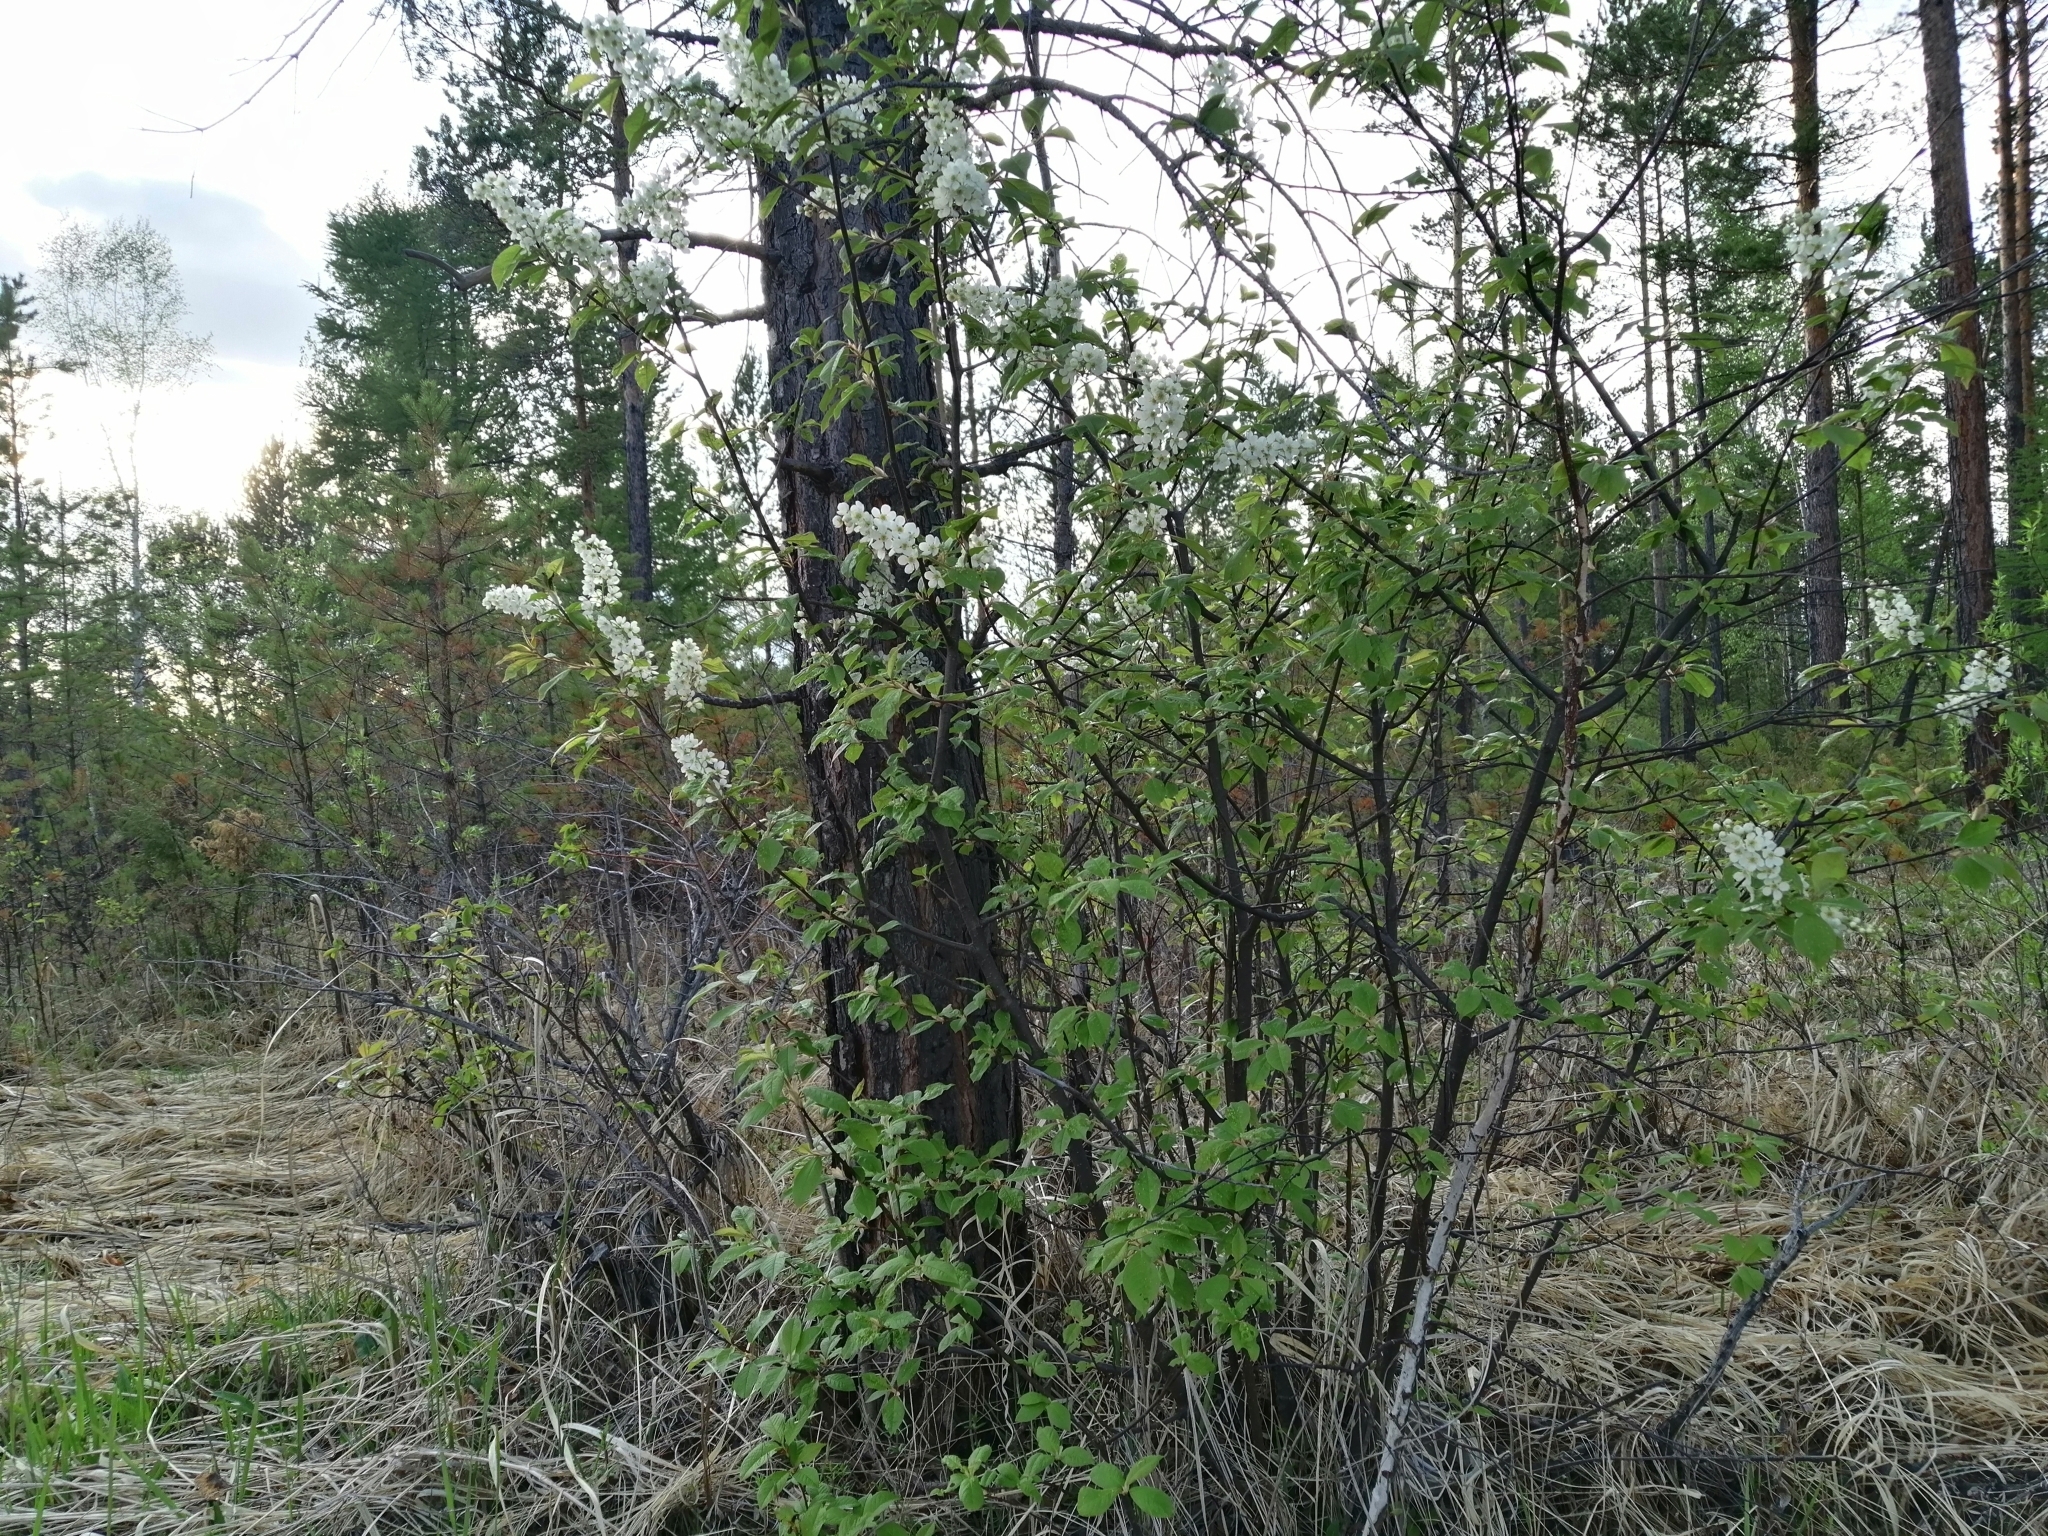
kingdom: Plantae
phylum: Tracheophyta
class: Magnoliopsida
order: Rosales
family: Rosaceae
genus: Prunus
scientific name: Prunus padus
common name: Bird cherry
